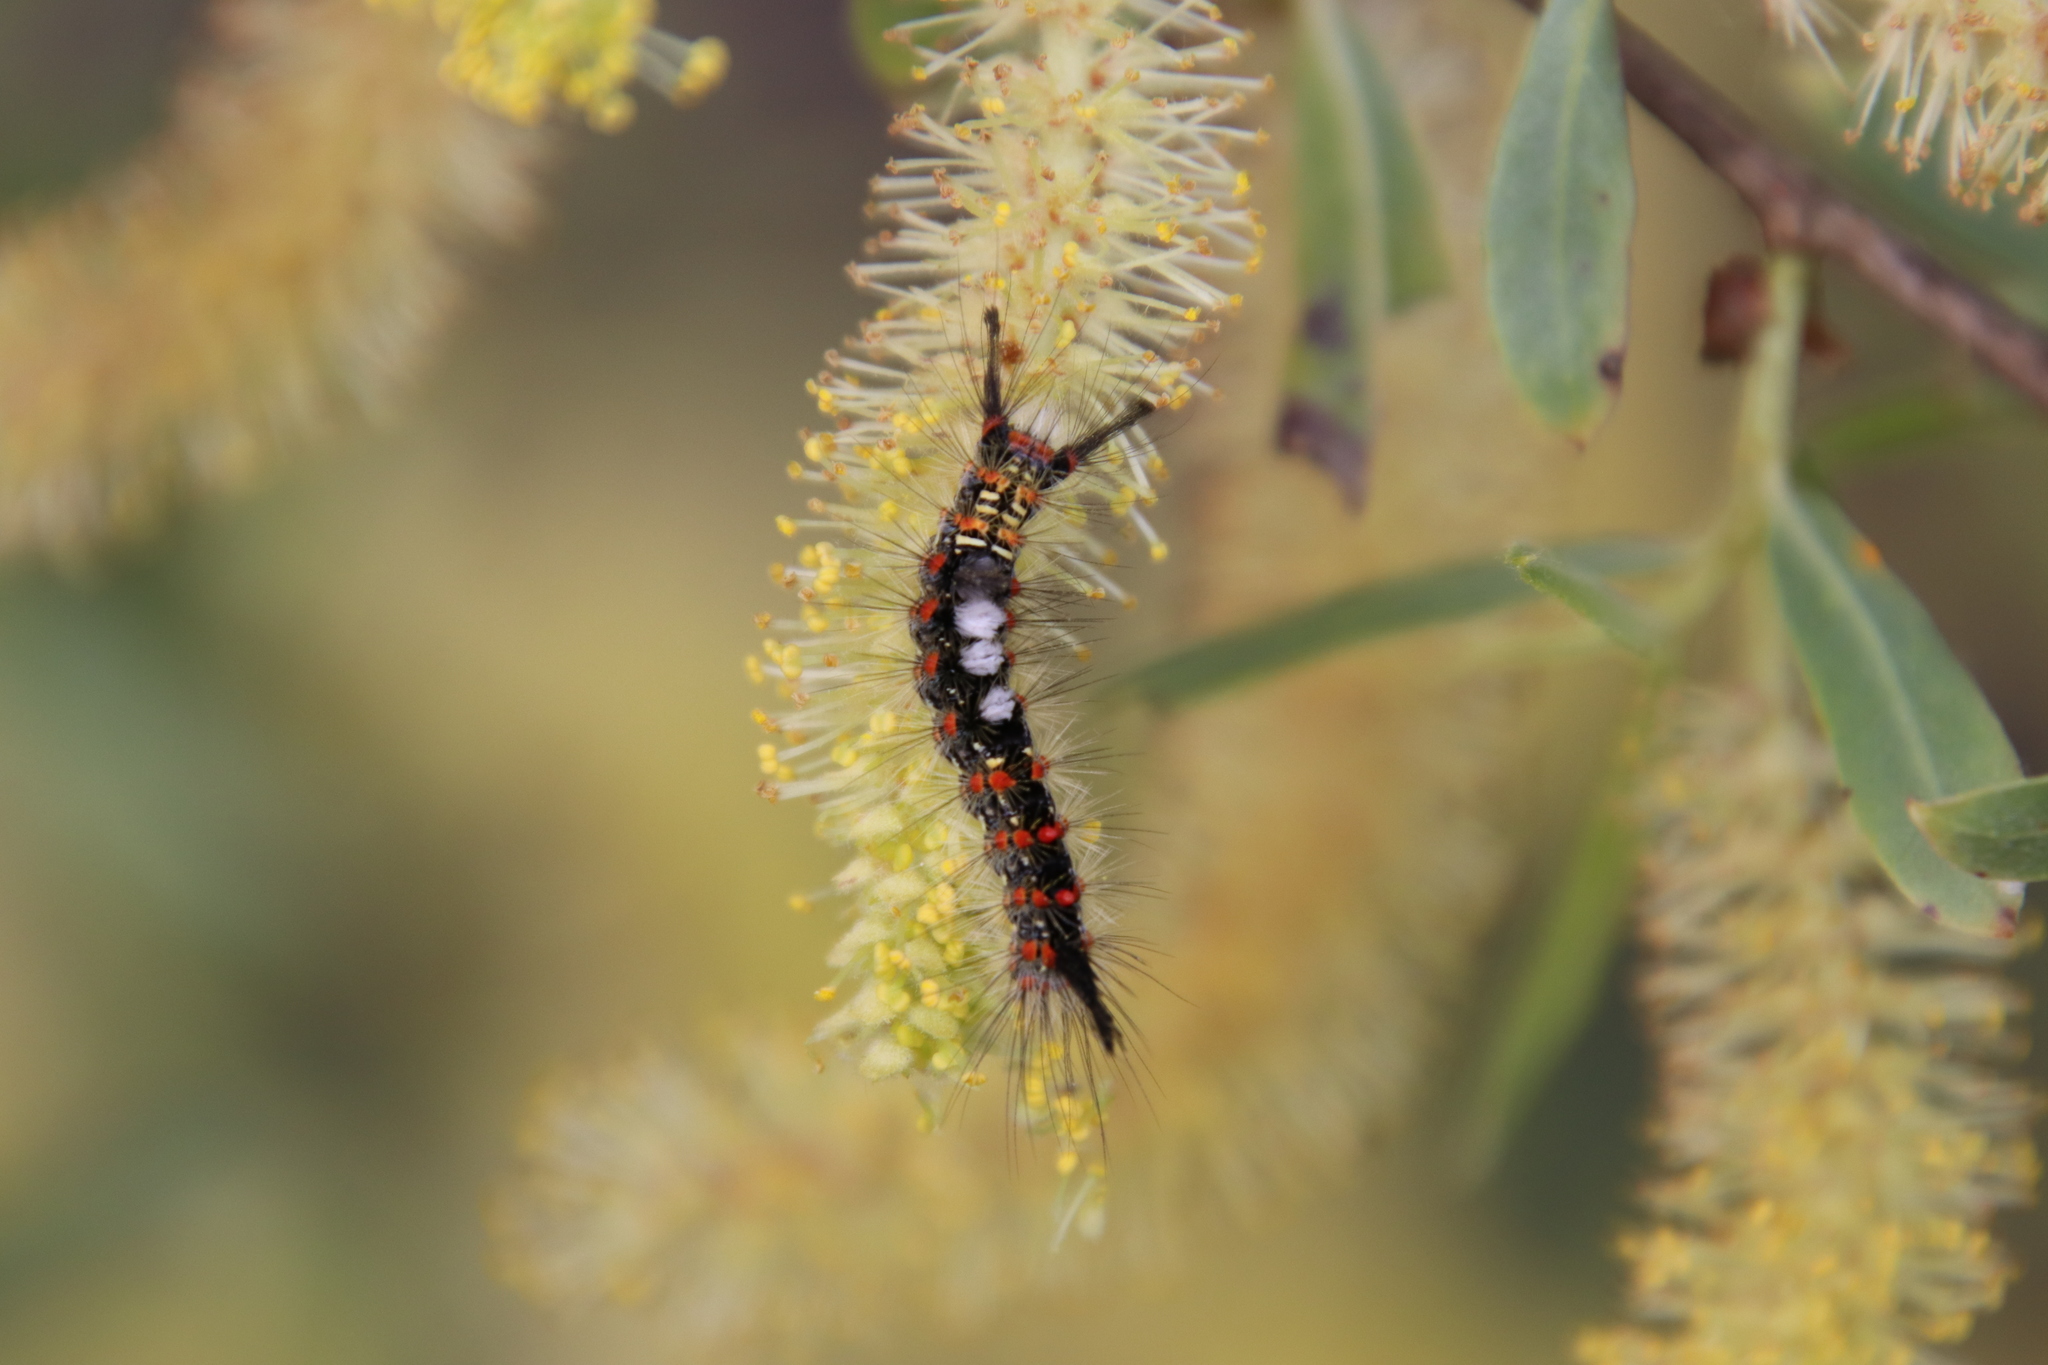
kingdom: Animalia
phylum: Arthropoda
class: Insecta
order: Lepidoptera
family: Erebidae
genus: Orgyia
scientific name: Orgyia vetusta
